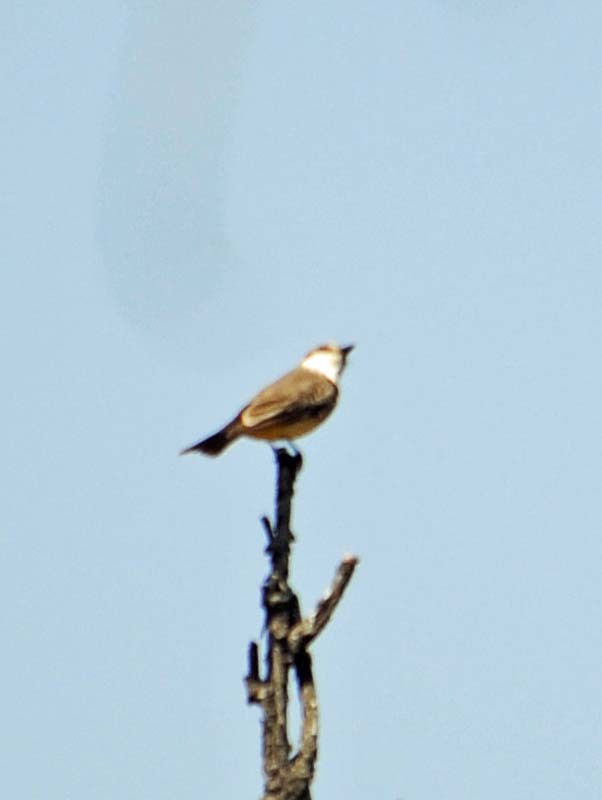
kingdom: Animalia
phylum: Chordata
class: Aves
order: Passeriformes
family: Tyrannidae
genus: Pyrocephalus
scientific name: Pyrocephalus rubinus
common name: Vermilion flycatcher
